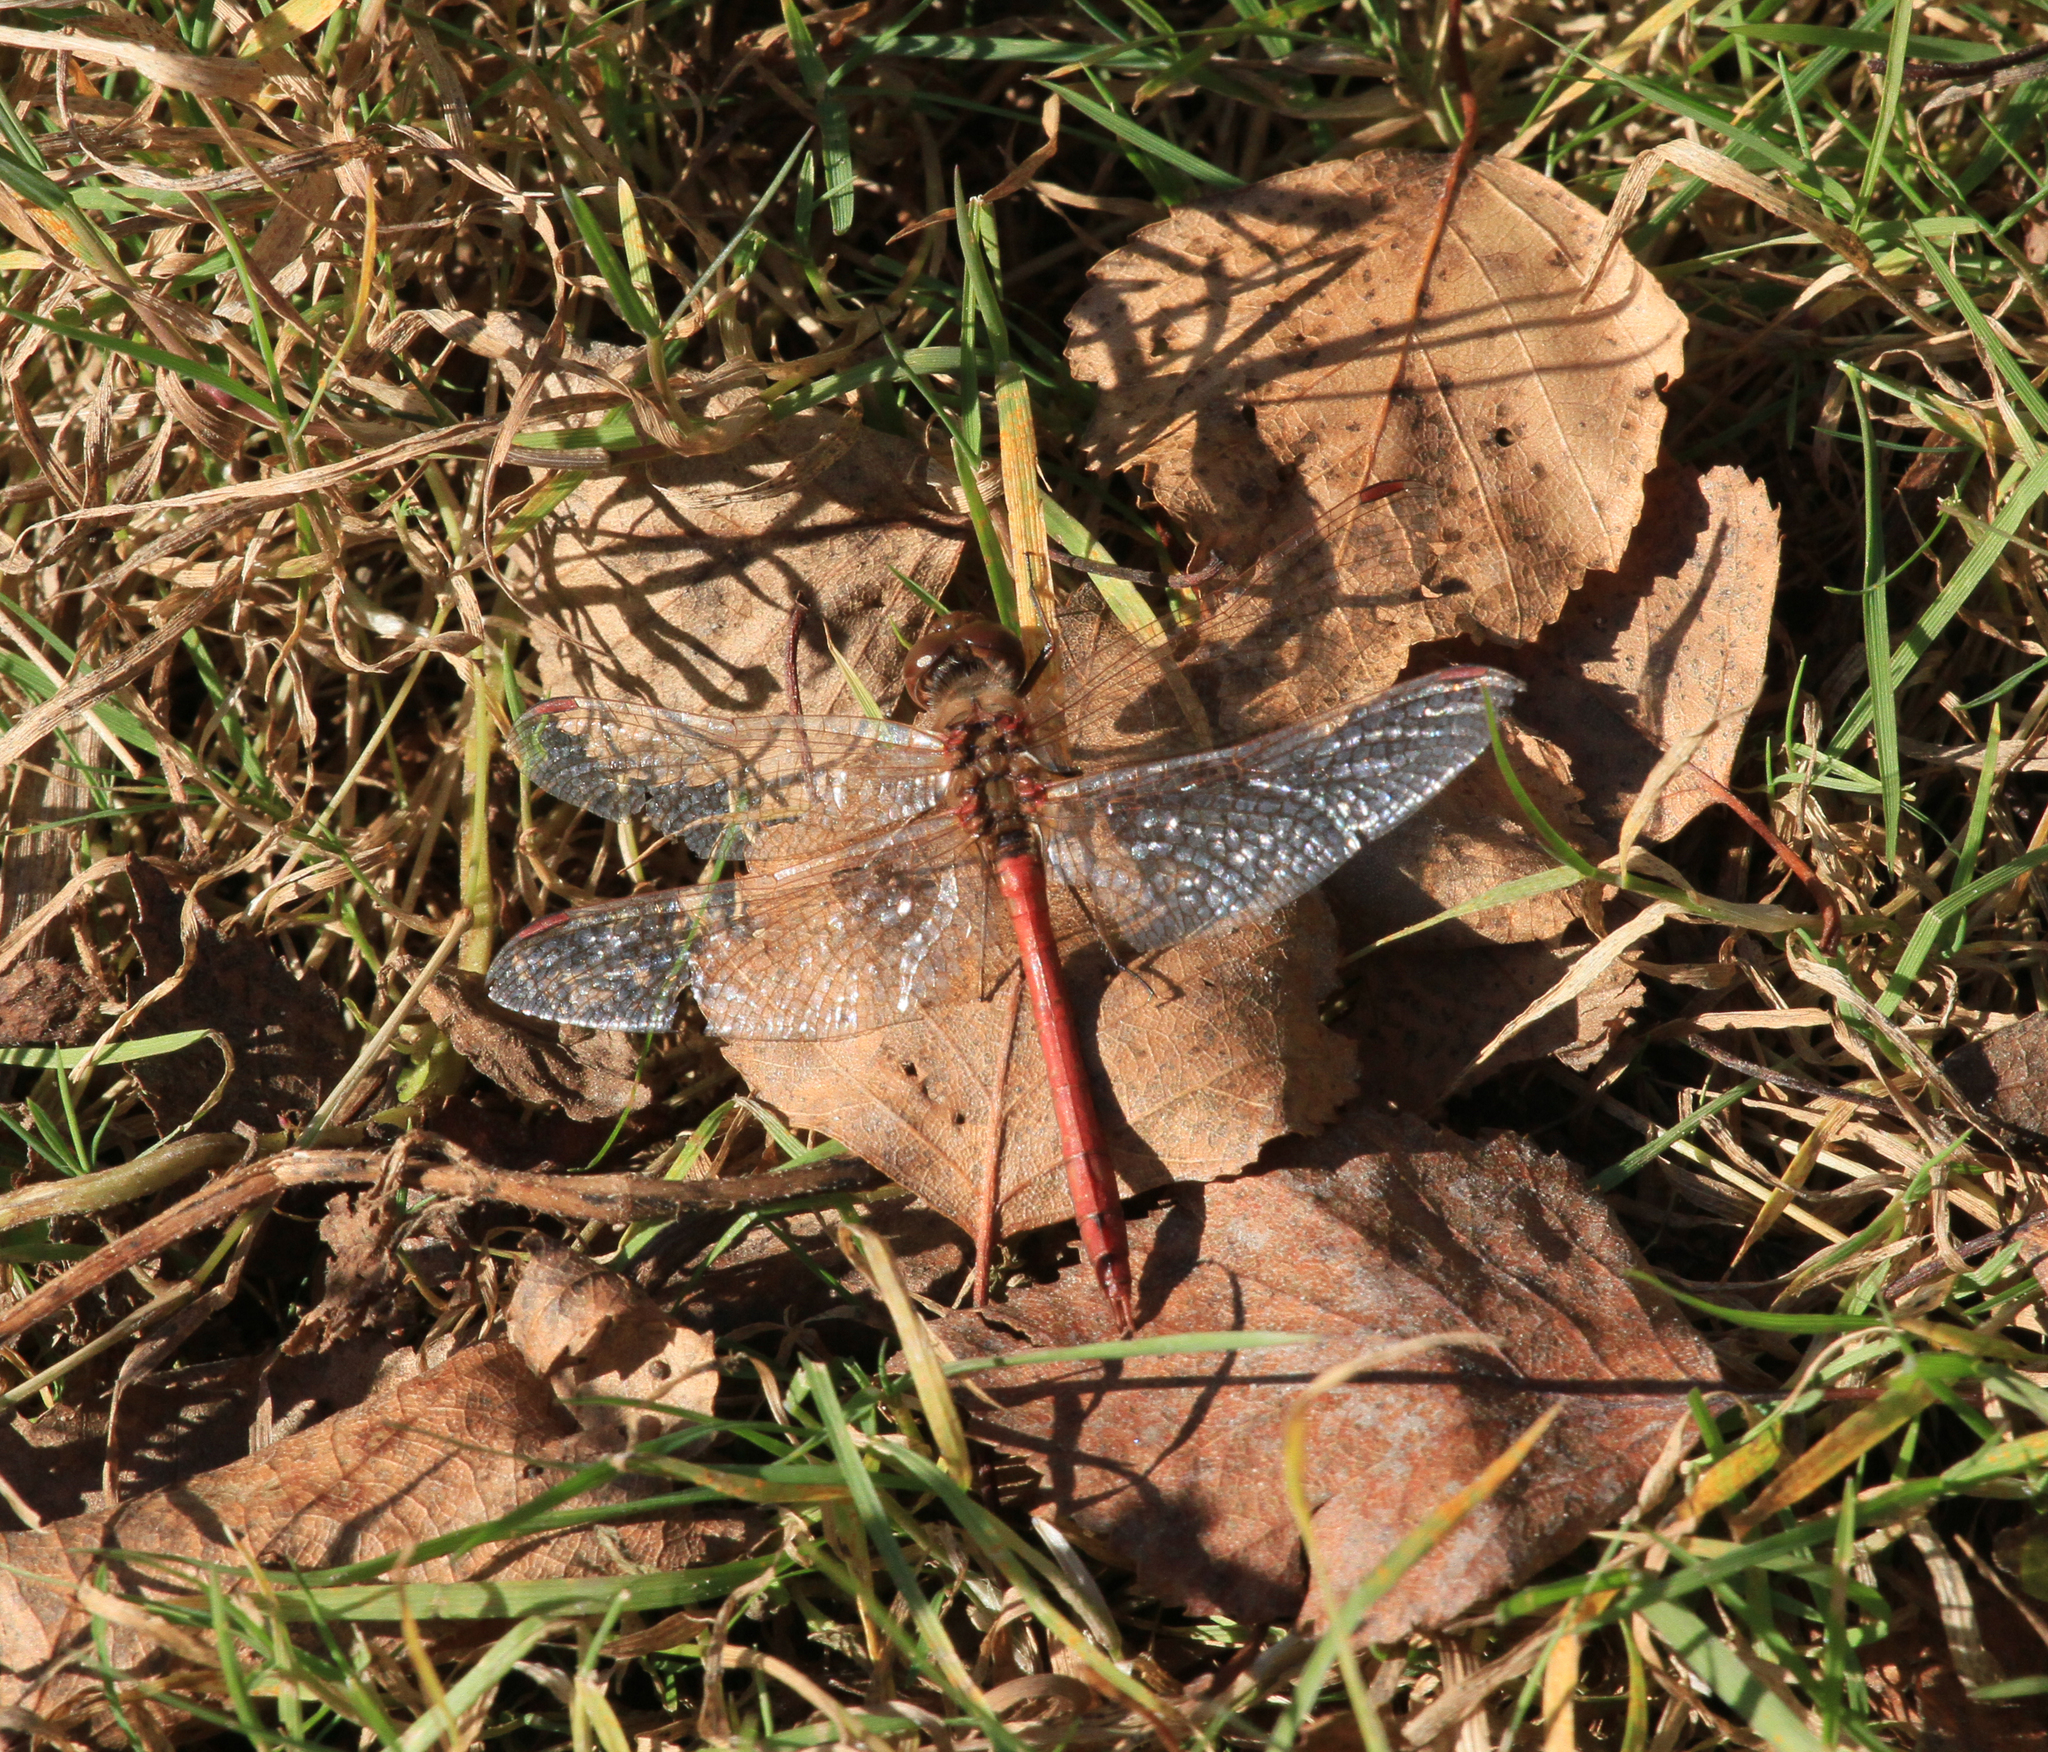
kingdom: Animalia
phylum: Arthropoda
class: Insecta
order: Odonata
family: Libellulidae
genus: Sympetrum
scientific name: Sympetrum vulgatum
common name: Vagrant darter
